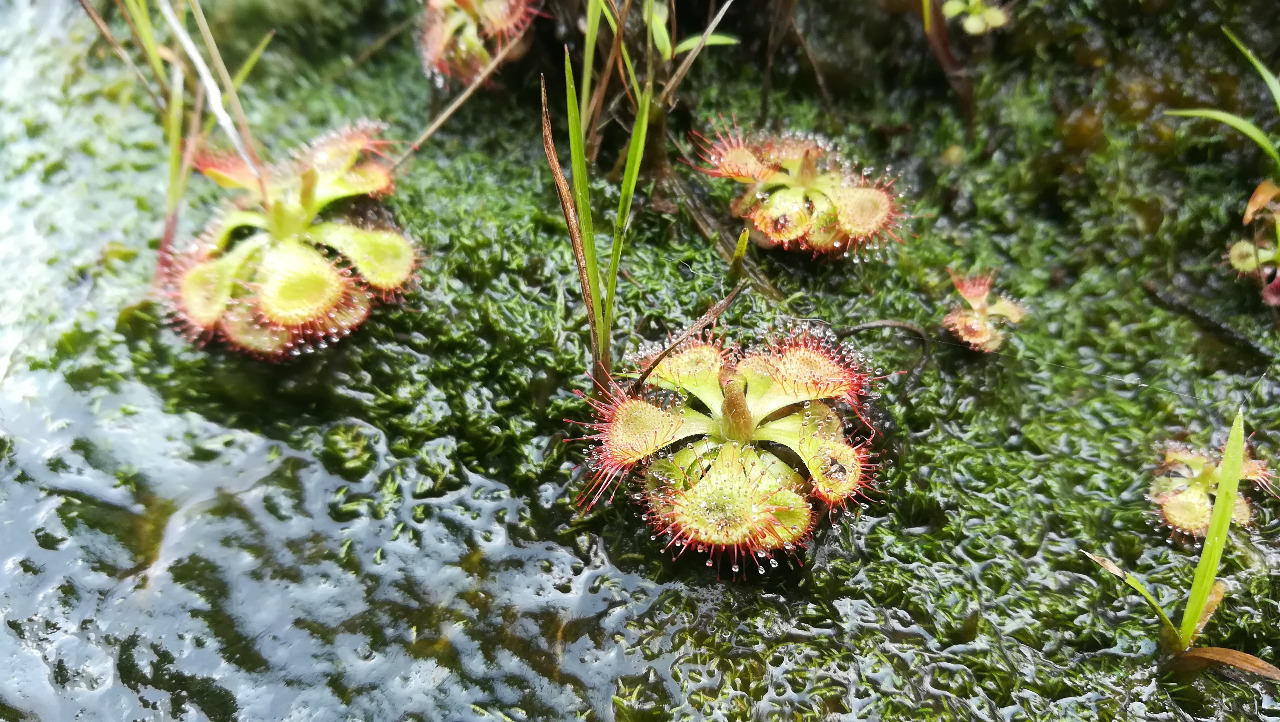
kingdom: Plantae
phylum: Tracheophyta
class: Magnoliopsida
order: Caryophyllales
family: Droseraceae
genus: Drosera
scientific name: Drosera spatulata
